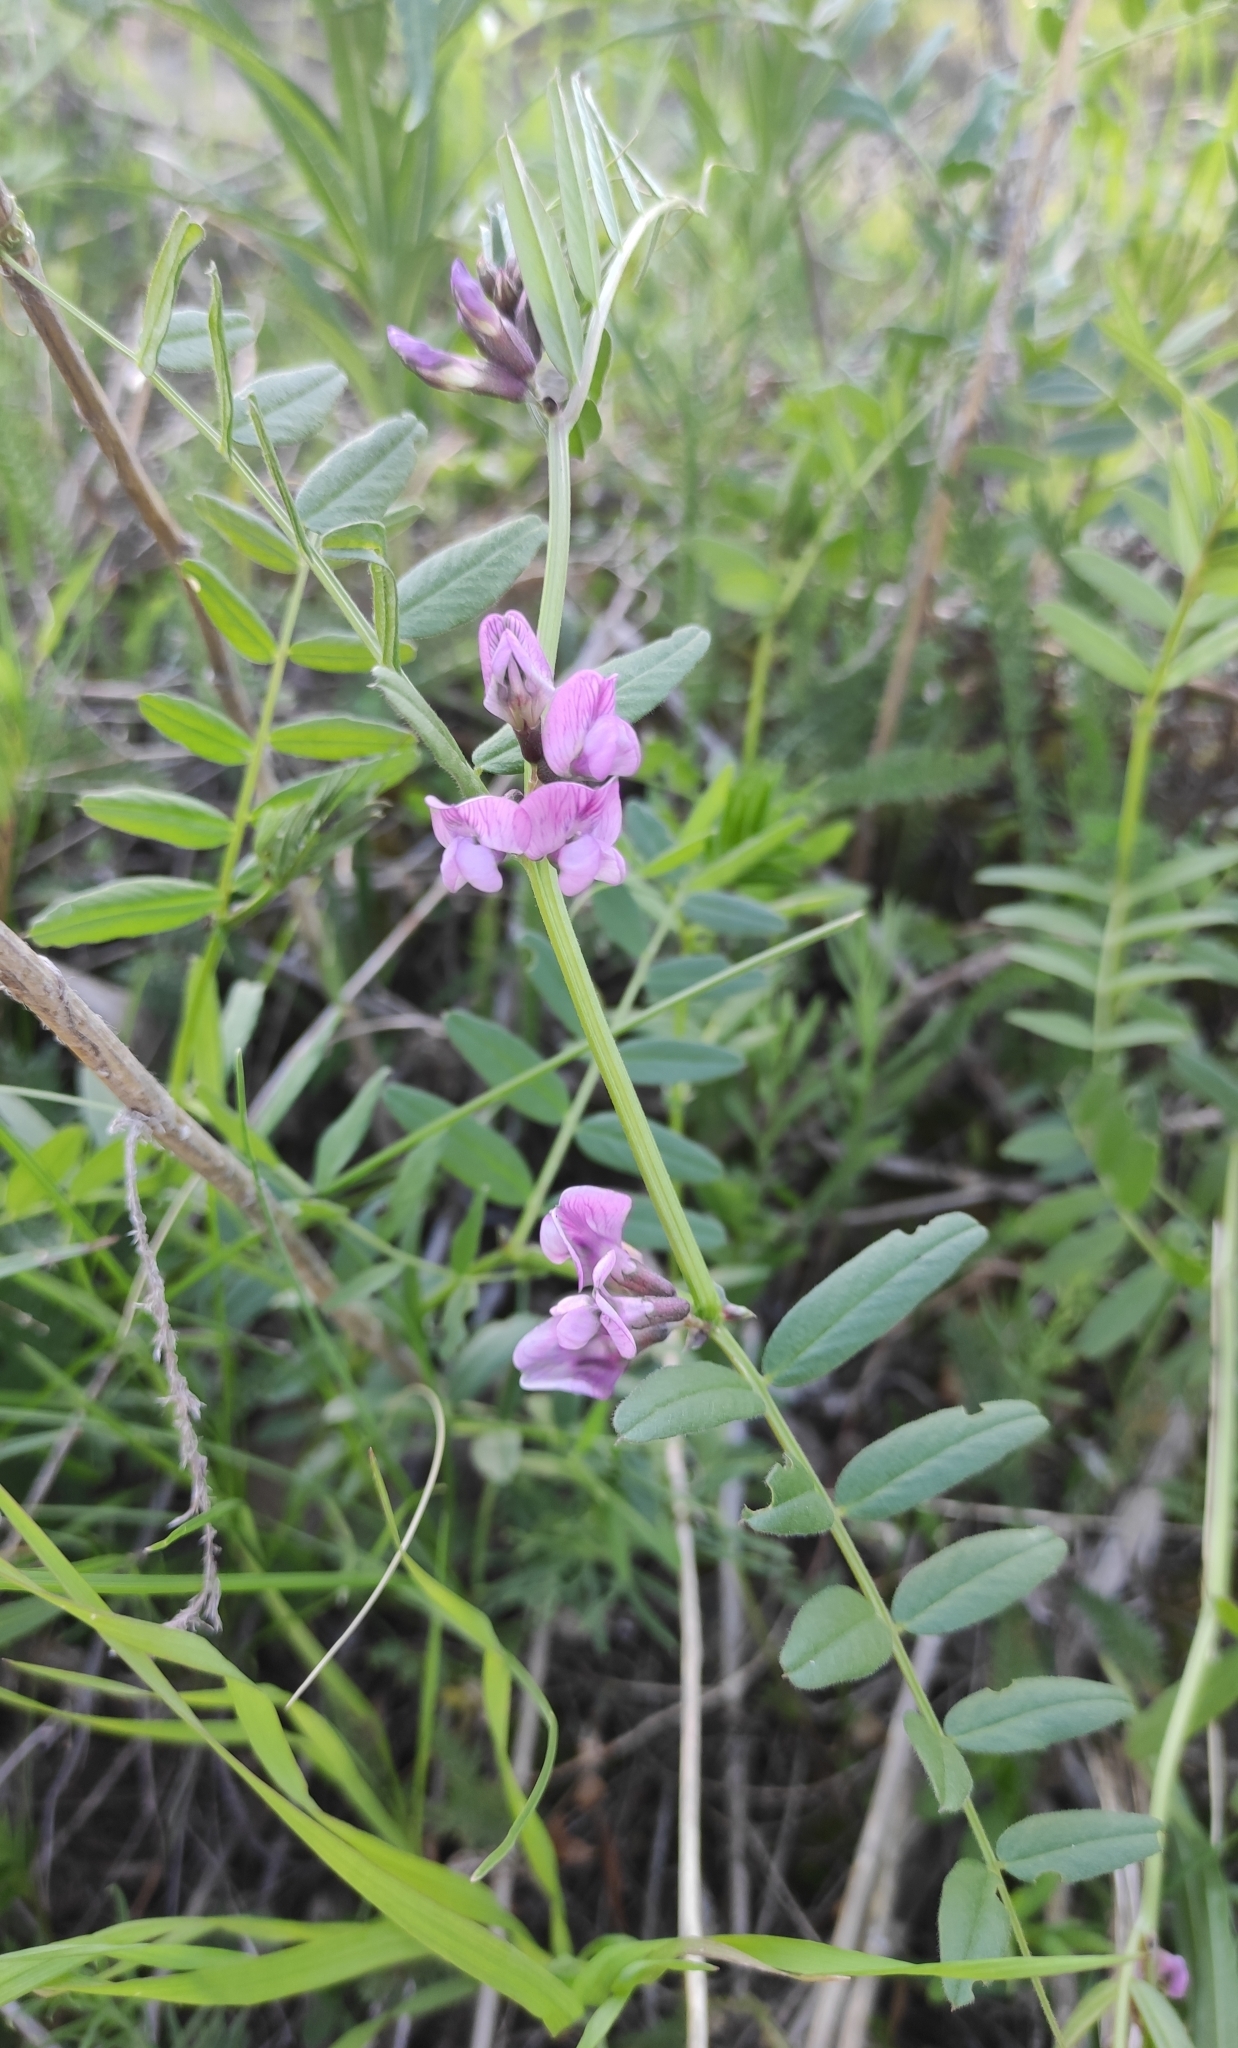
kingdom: Plantae
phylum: Tracheophyta
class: Magnoliopsida
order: Fabales
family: Fabaceae
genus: Vicia
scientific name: Vicia sepium
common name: Bush vetch
